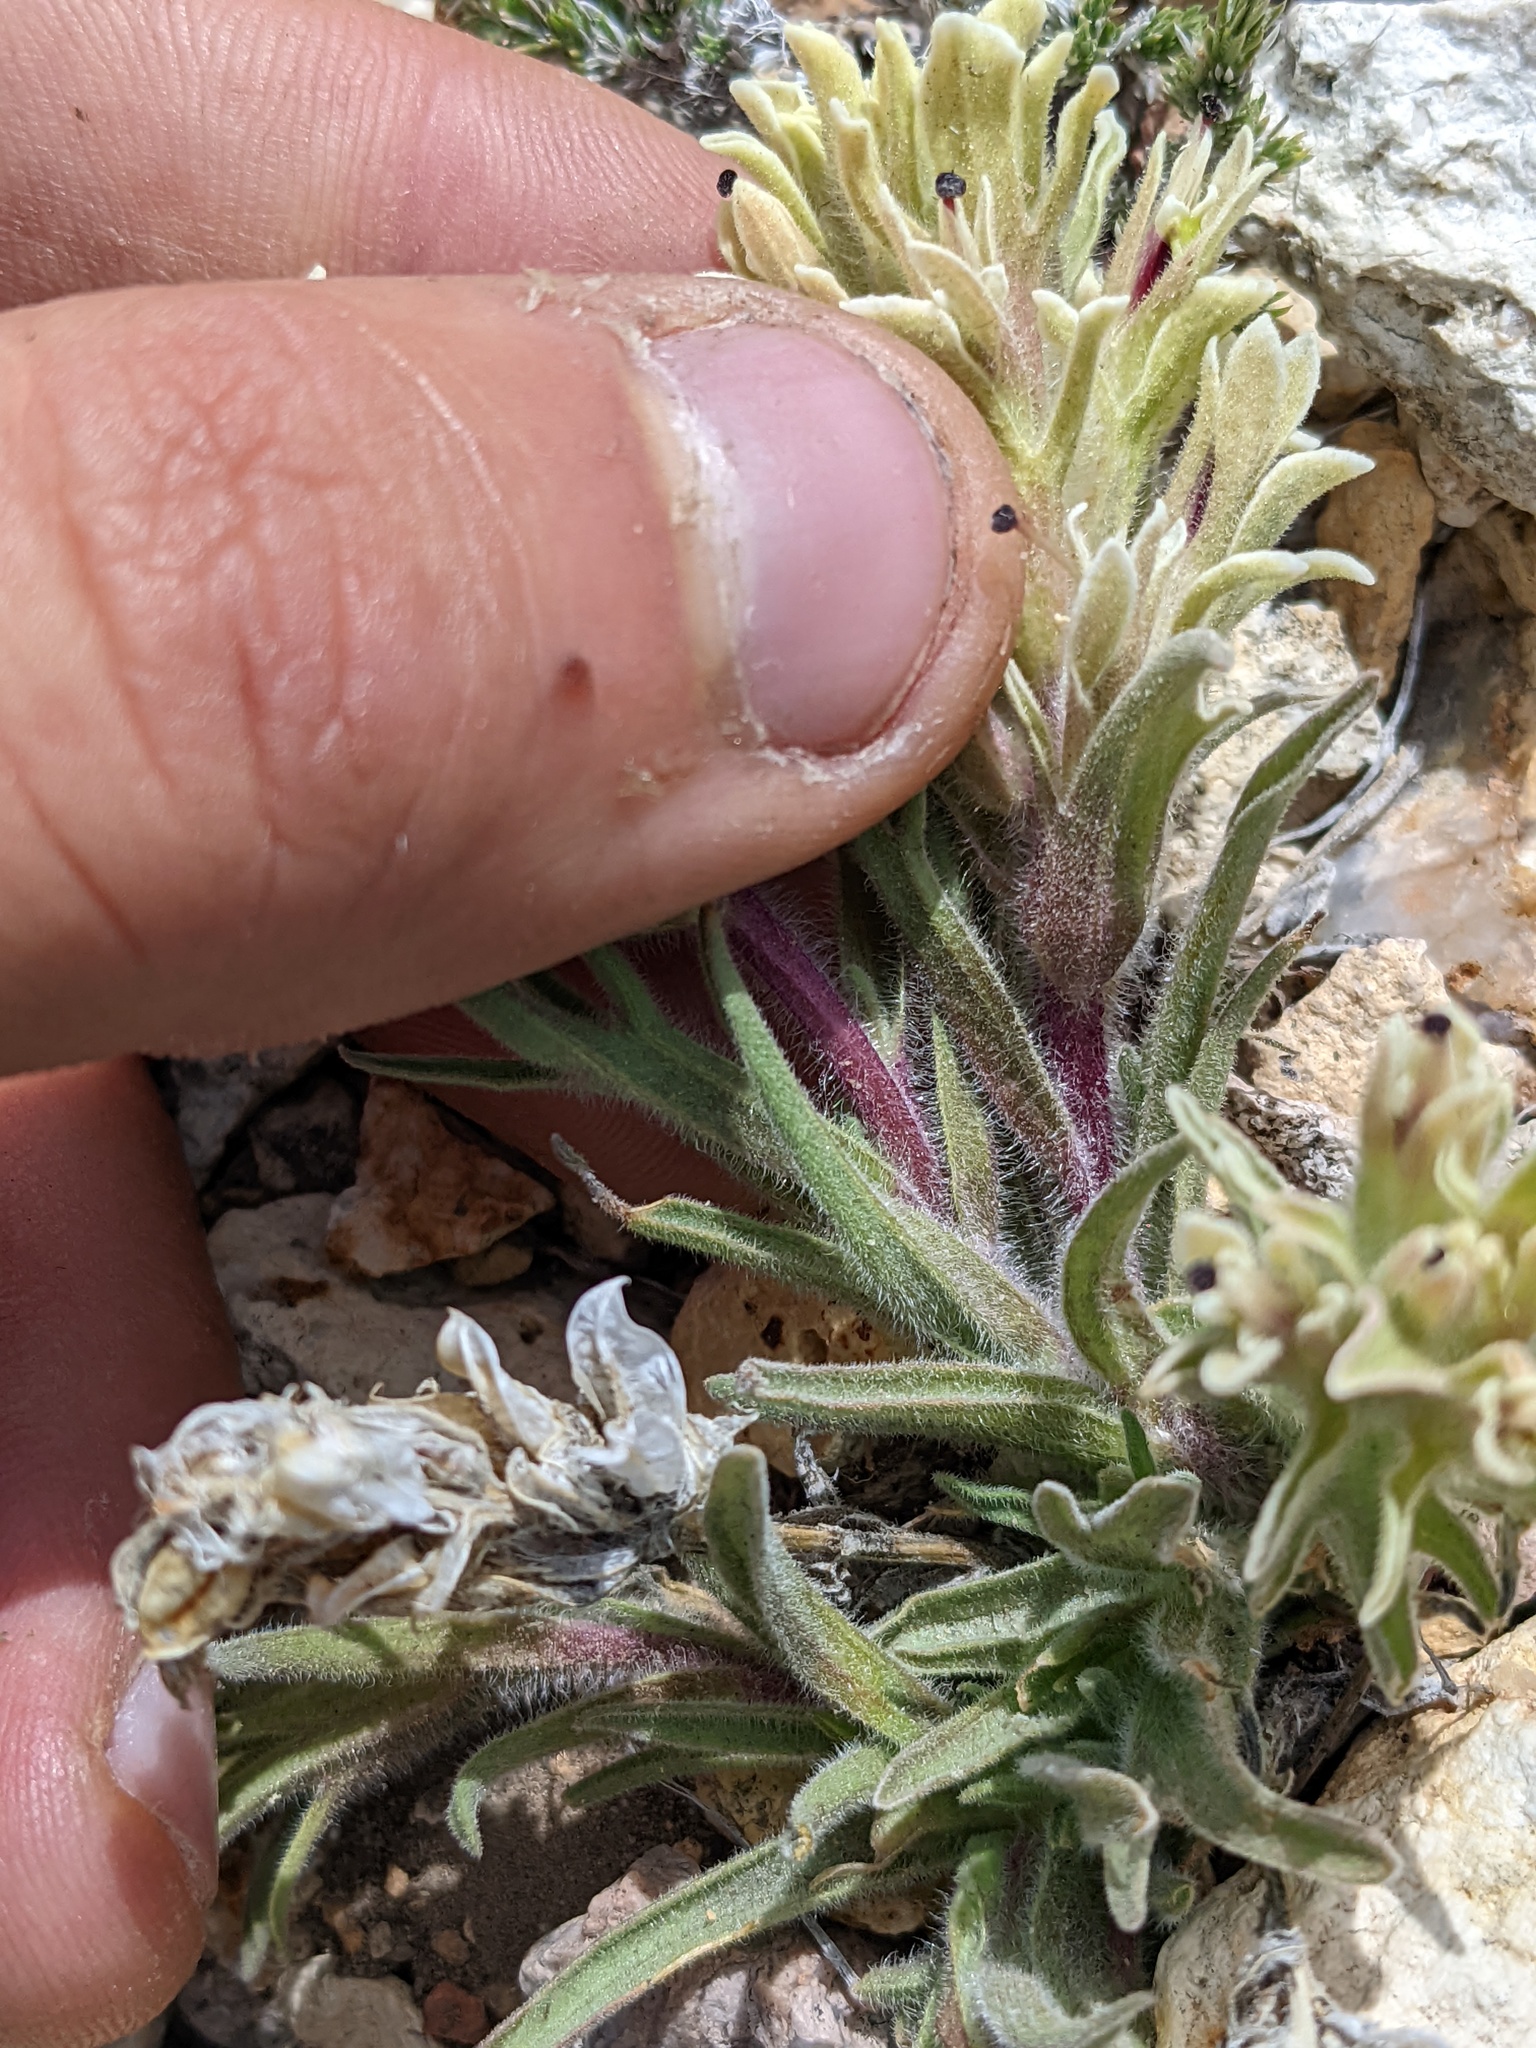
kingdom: Plantae
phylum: Tracheophyta
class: Magnoliopsida
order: Lamiales
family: Orobanchaceae
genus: Castilleja
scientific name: Castilleja nana
